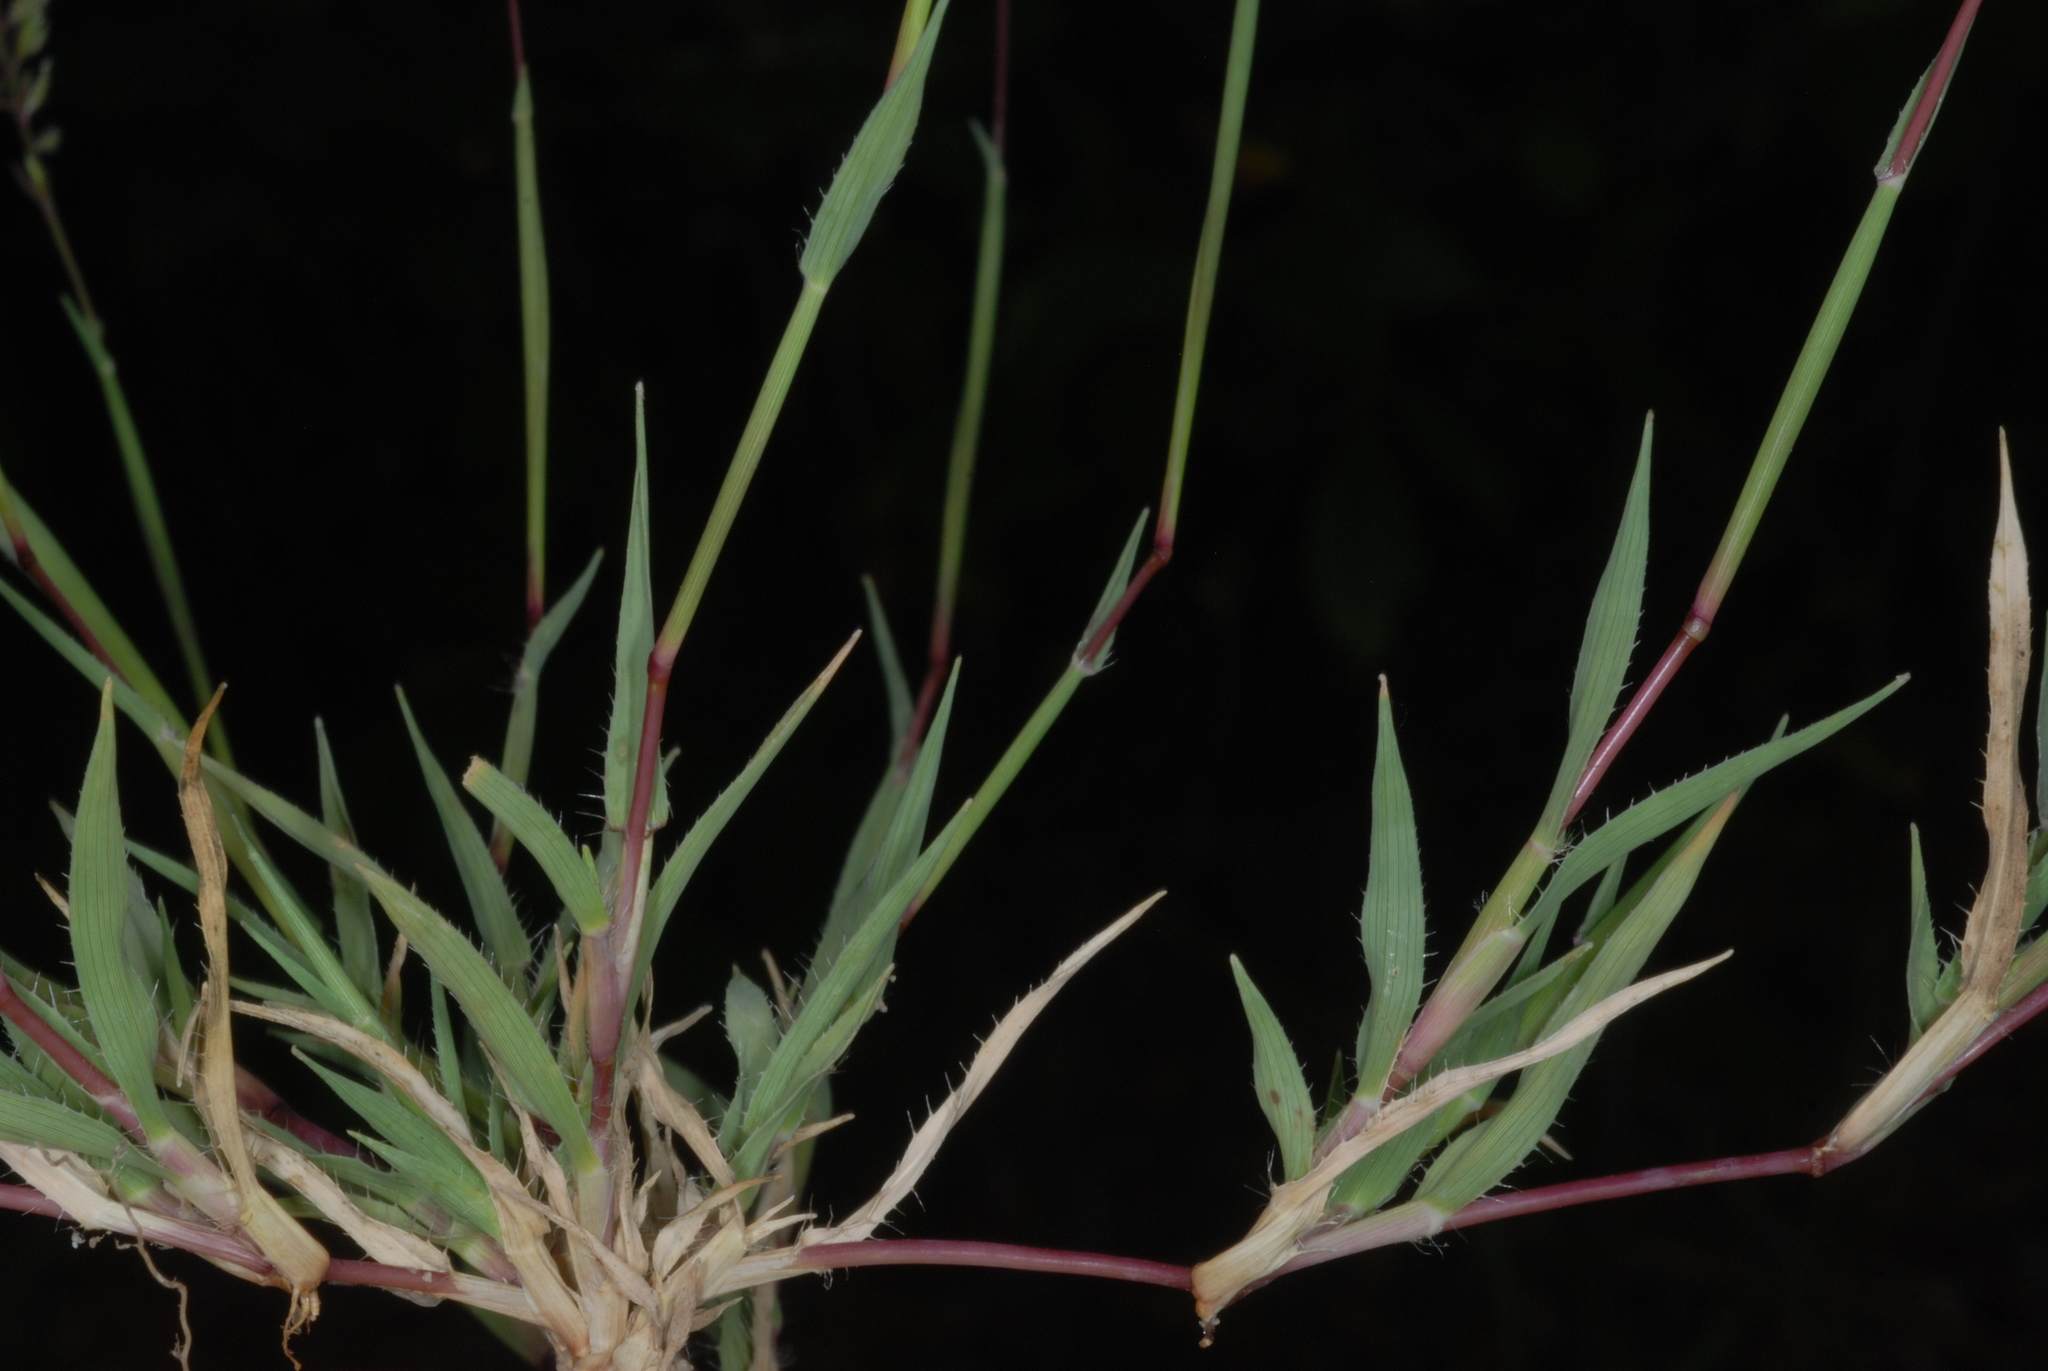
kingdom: Plantae
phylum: Tracheophyta
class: Liliopsida
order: Poales
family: Poaceae
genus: Tragus
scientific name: Tragus racemosus
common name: European bur-grass
